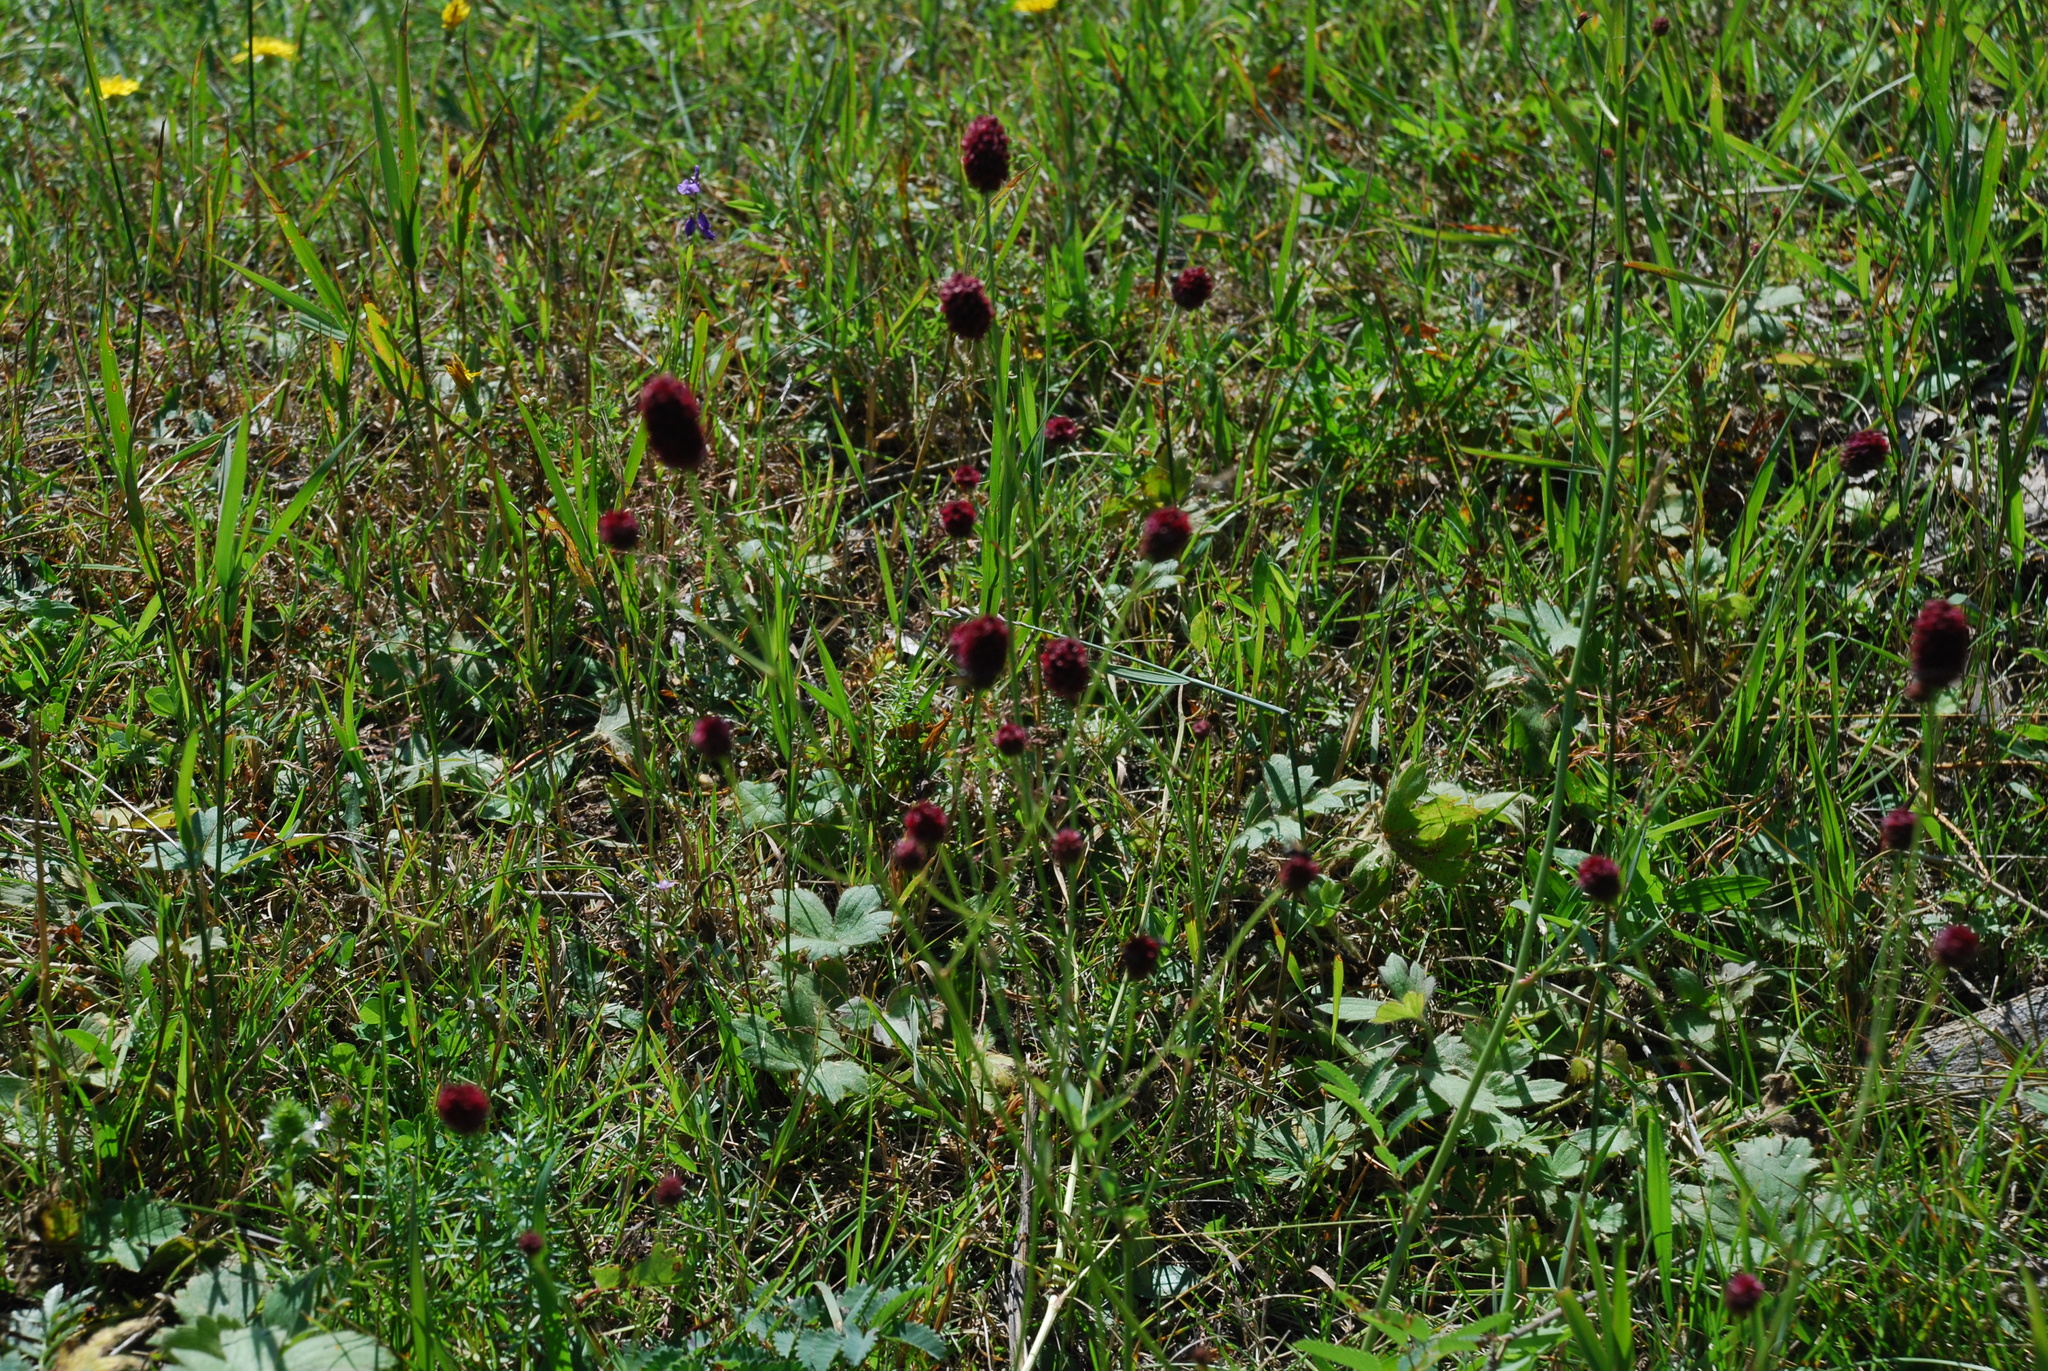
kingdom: Plantae
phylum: Tracheophyta
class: Magnoliopsida
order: Rosales
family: Rosaceae
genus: Sanguisorba
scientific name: Sanguisorba officinalis
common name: Great burnet
